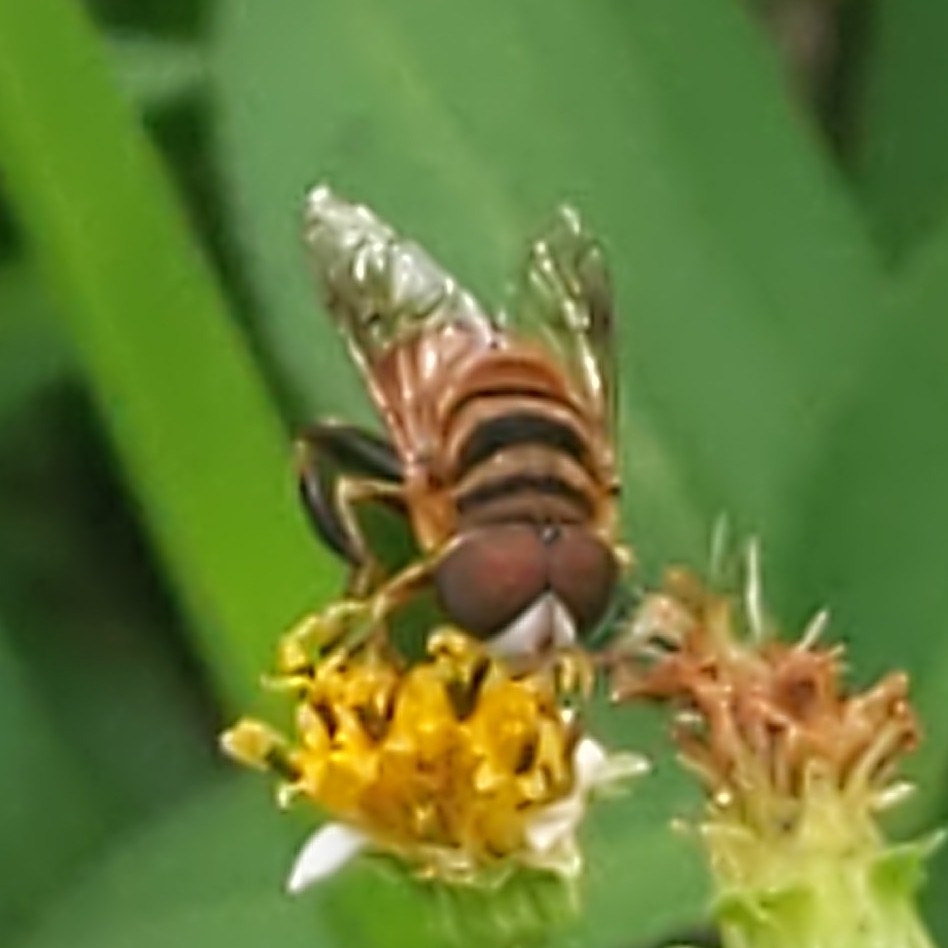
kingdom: Animalia
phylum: Arthropoda
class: Insecta
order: Diptera
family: Syrphidae
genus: Palpada
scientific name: Palpada vinetorum
